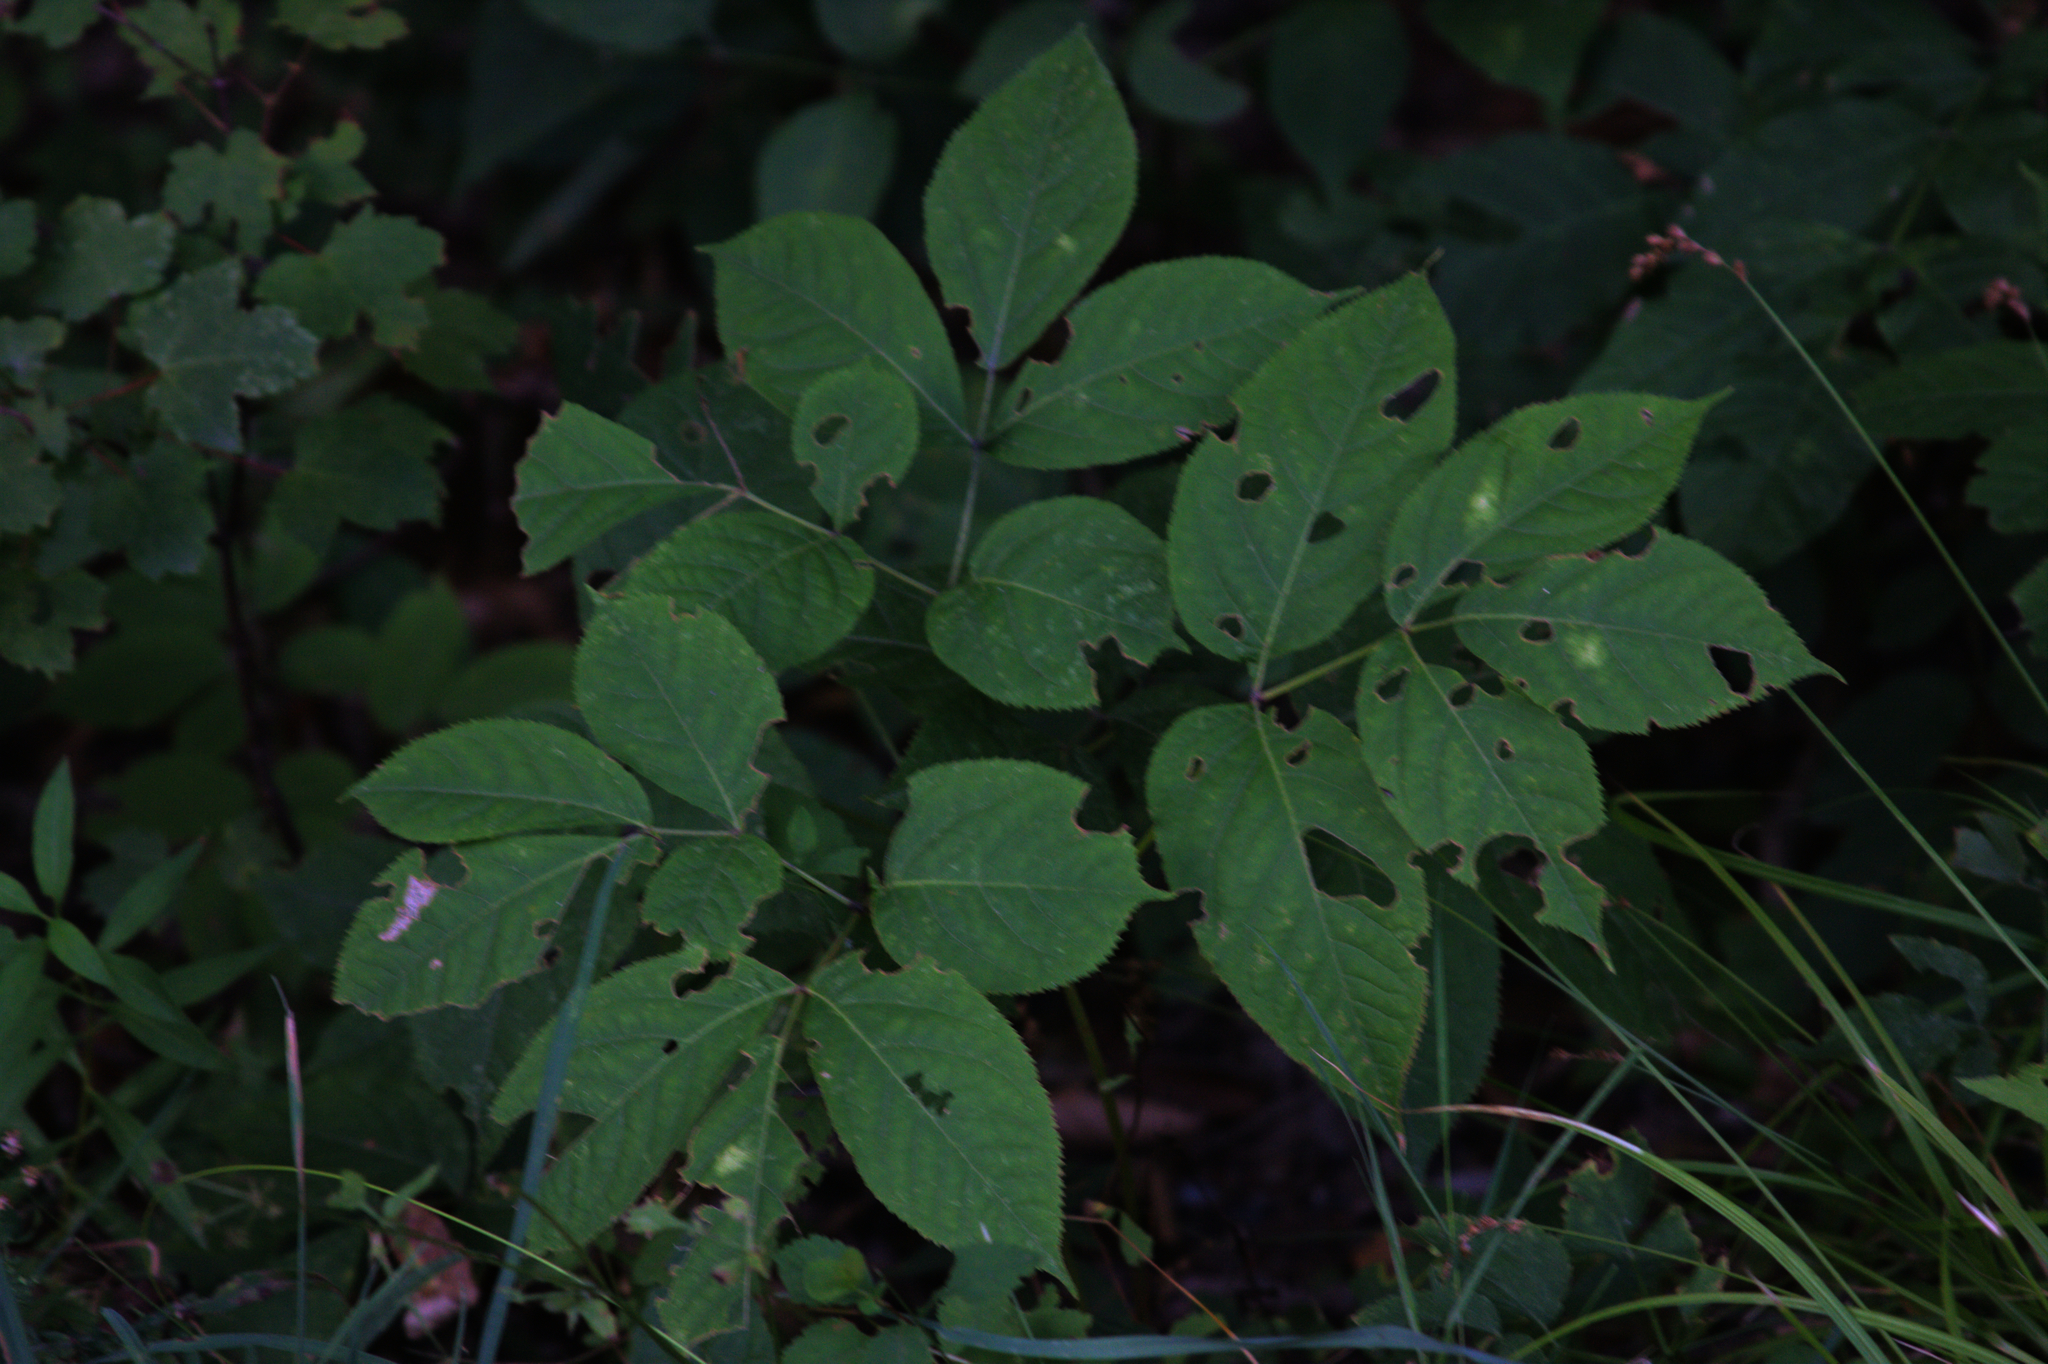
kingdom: Plantae
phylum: Tracheophyta
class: Magnoliopsida
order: Apiales
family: Araliaceae
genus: Aralia
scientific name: Aralia nudicaulis
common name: Wild sarsaparilla
